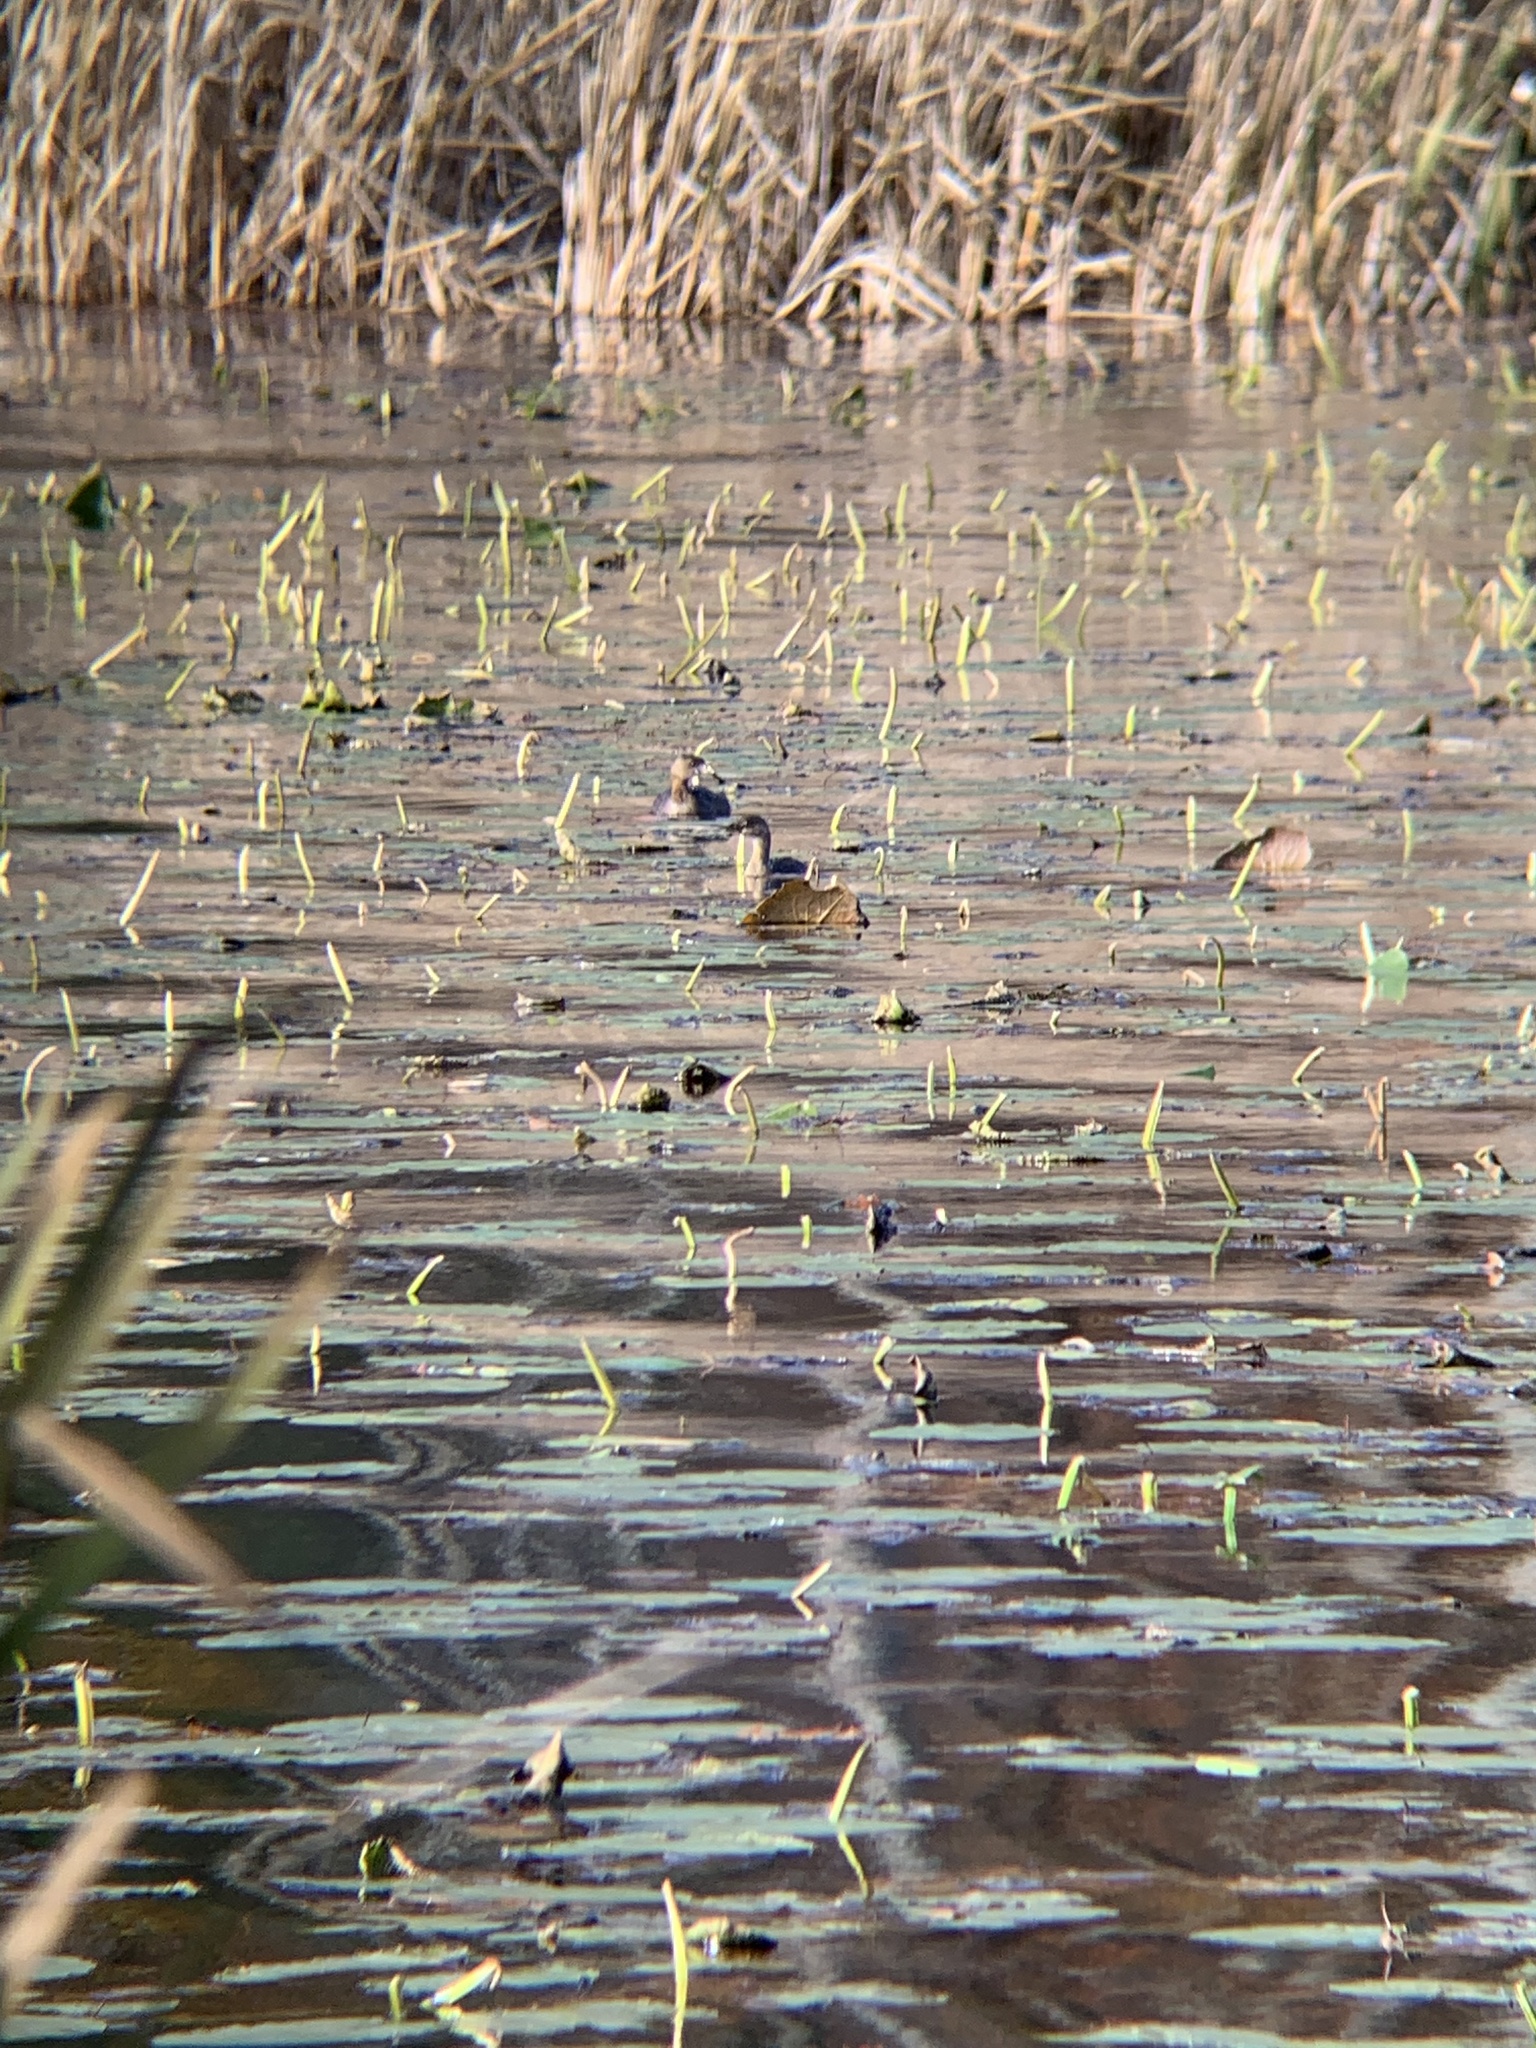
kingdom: Animalia
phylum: Chordata
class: Aves
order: Podicipediformes
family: Podicipedidae
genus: Podilymbus
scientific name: Podilymbus podiceps
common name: Pied-billed grebe
